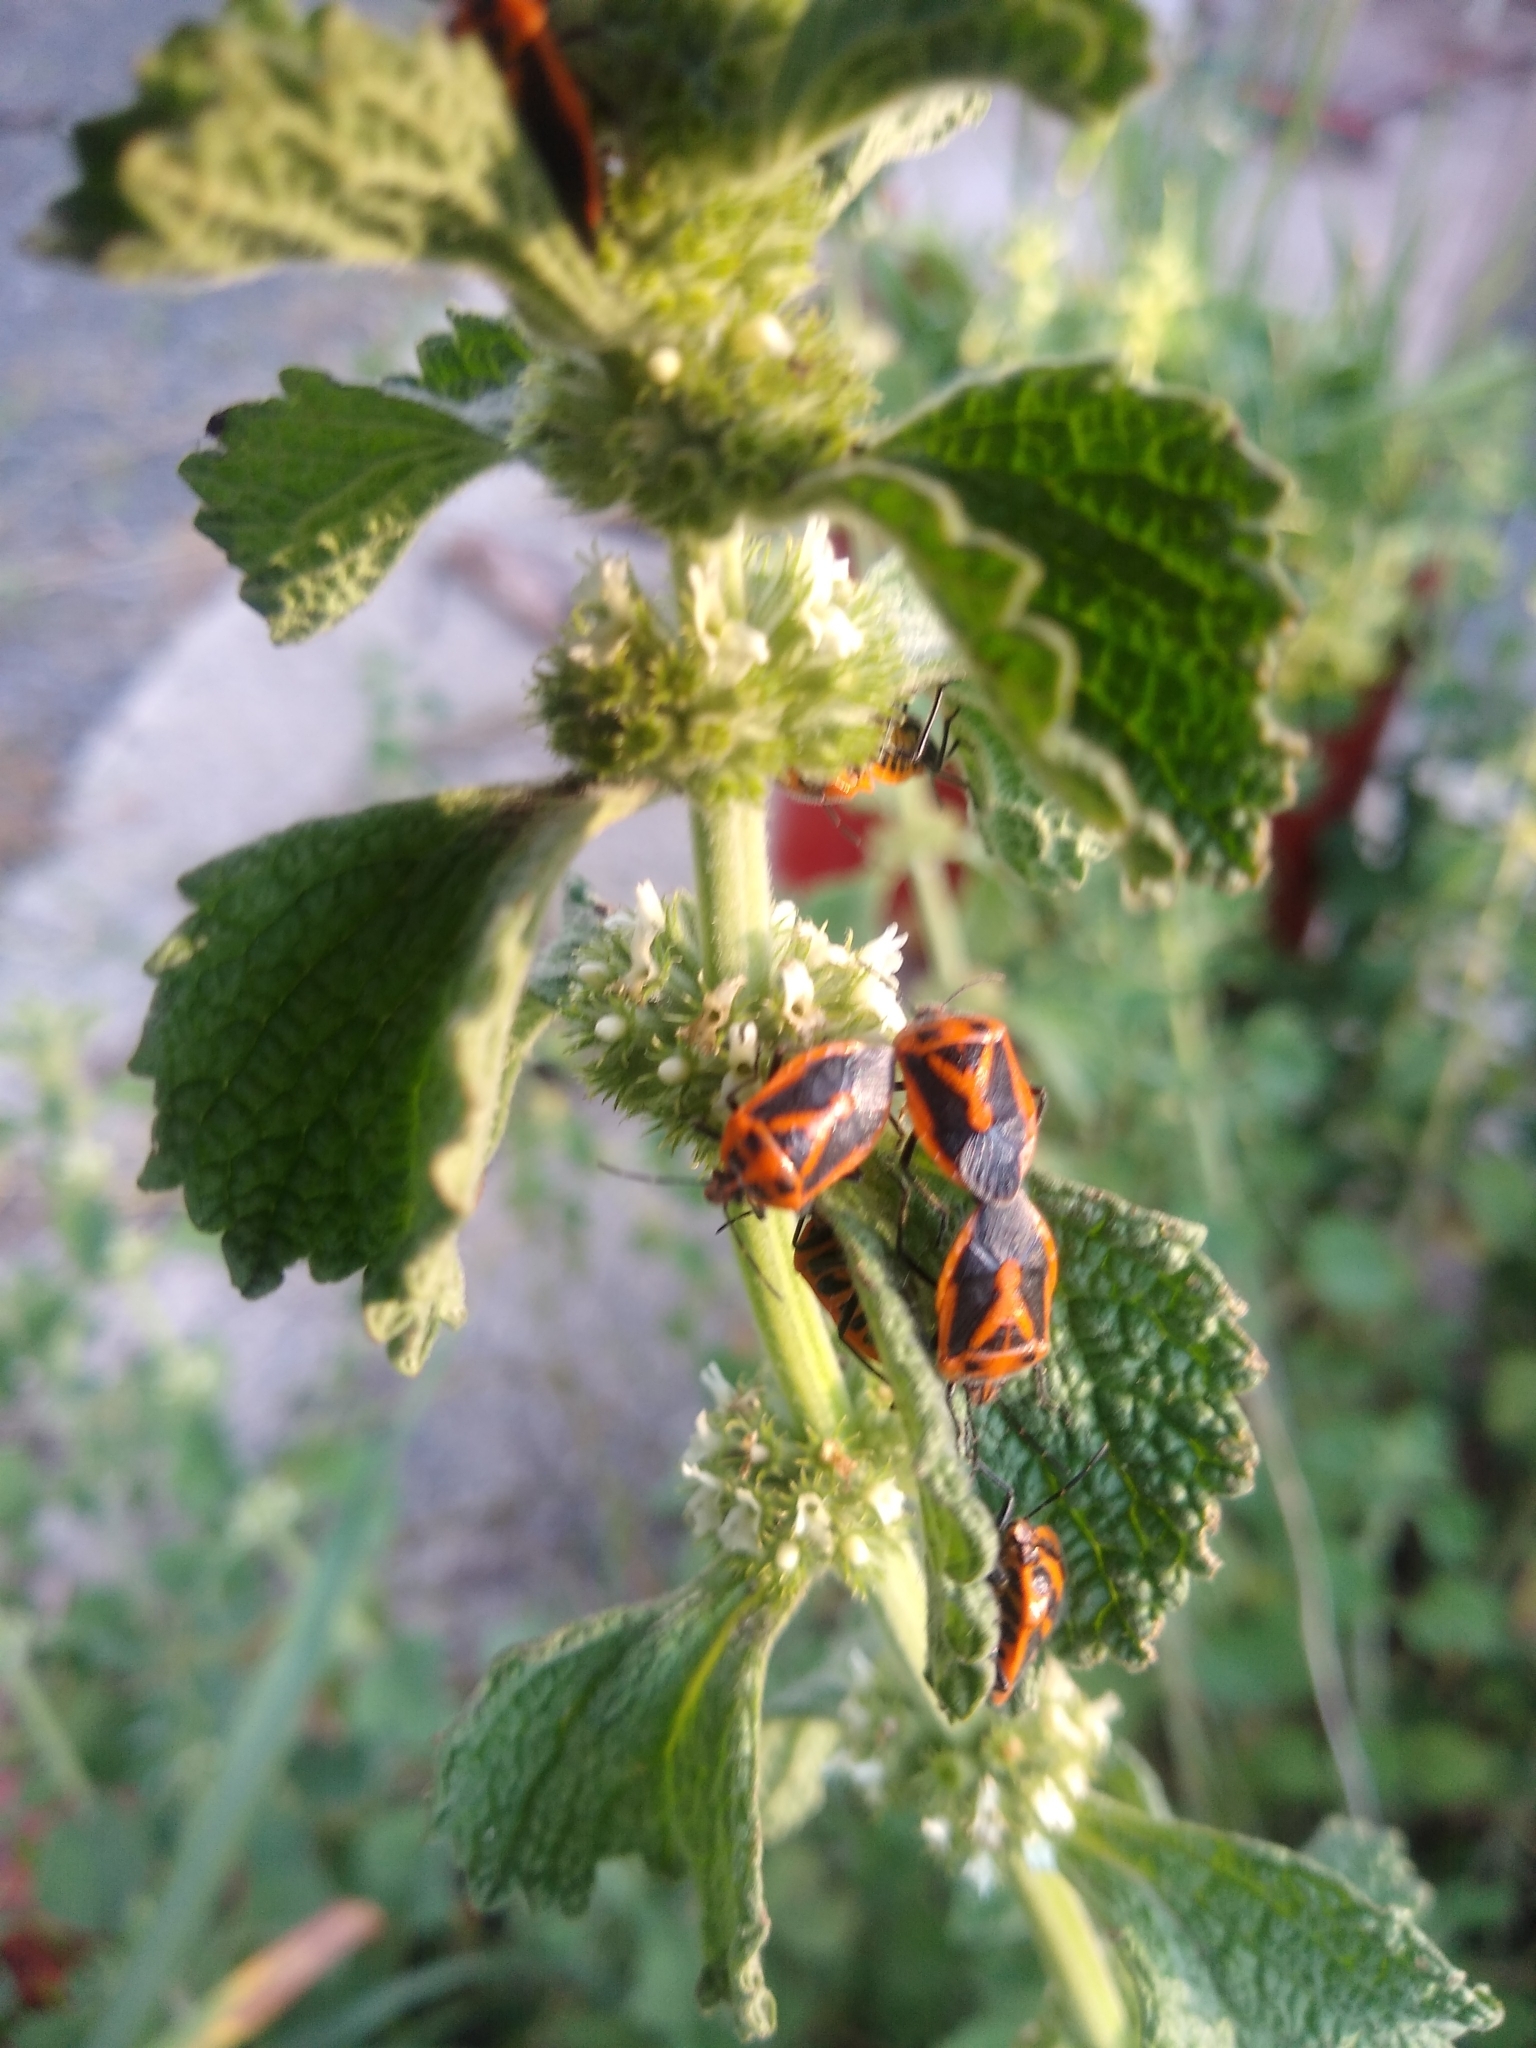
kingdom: Animalia
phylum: Arthropoda
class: Insecta
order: Hemiptera
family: Pentatomidae
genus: Agonoscelis
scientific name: Agonoscelis rutila
